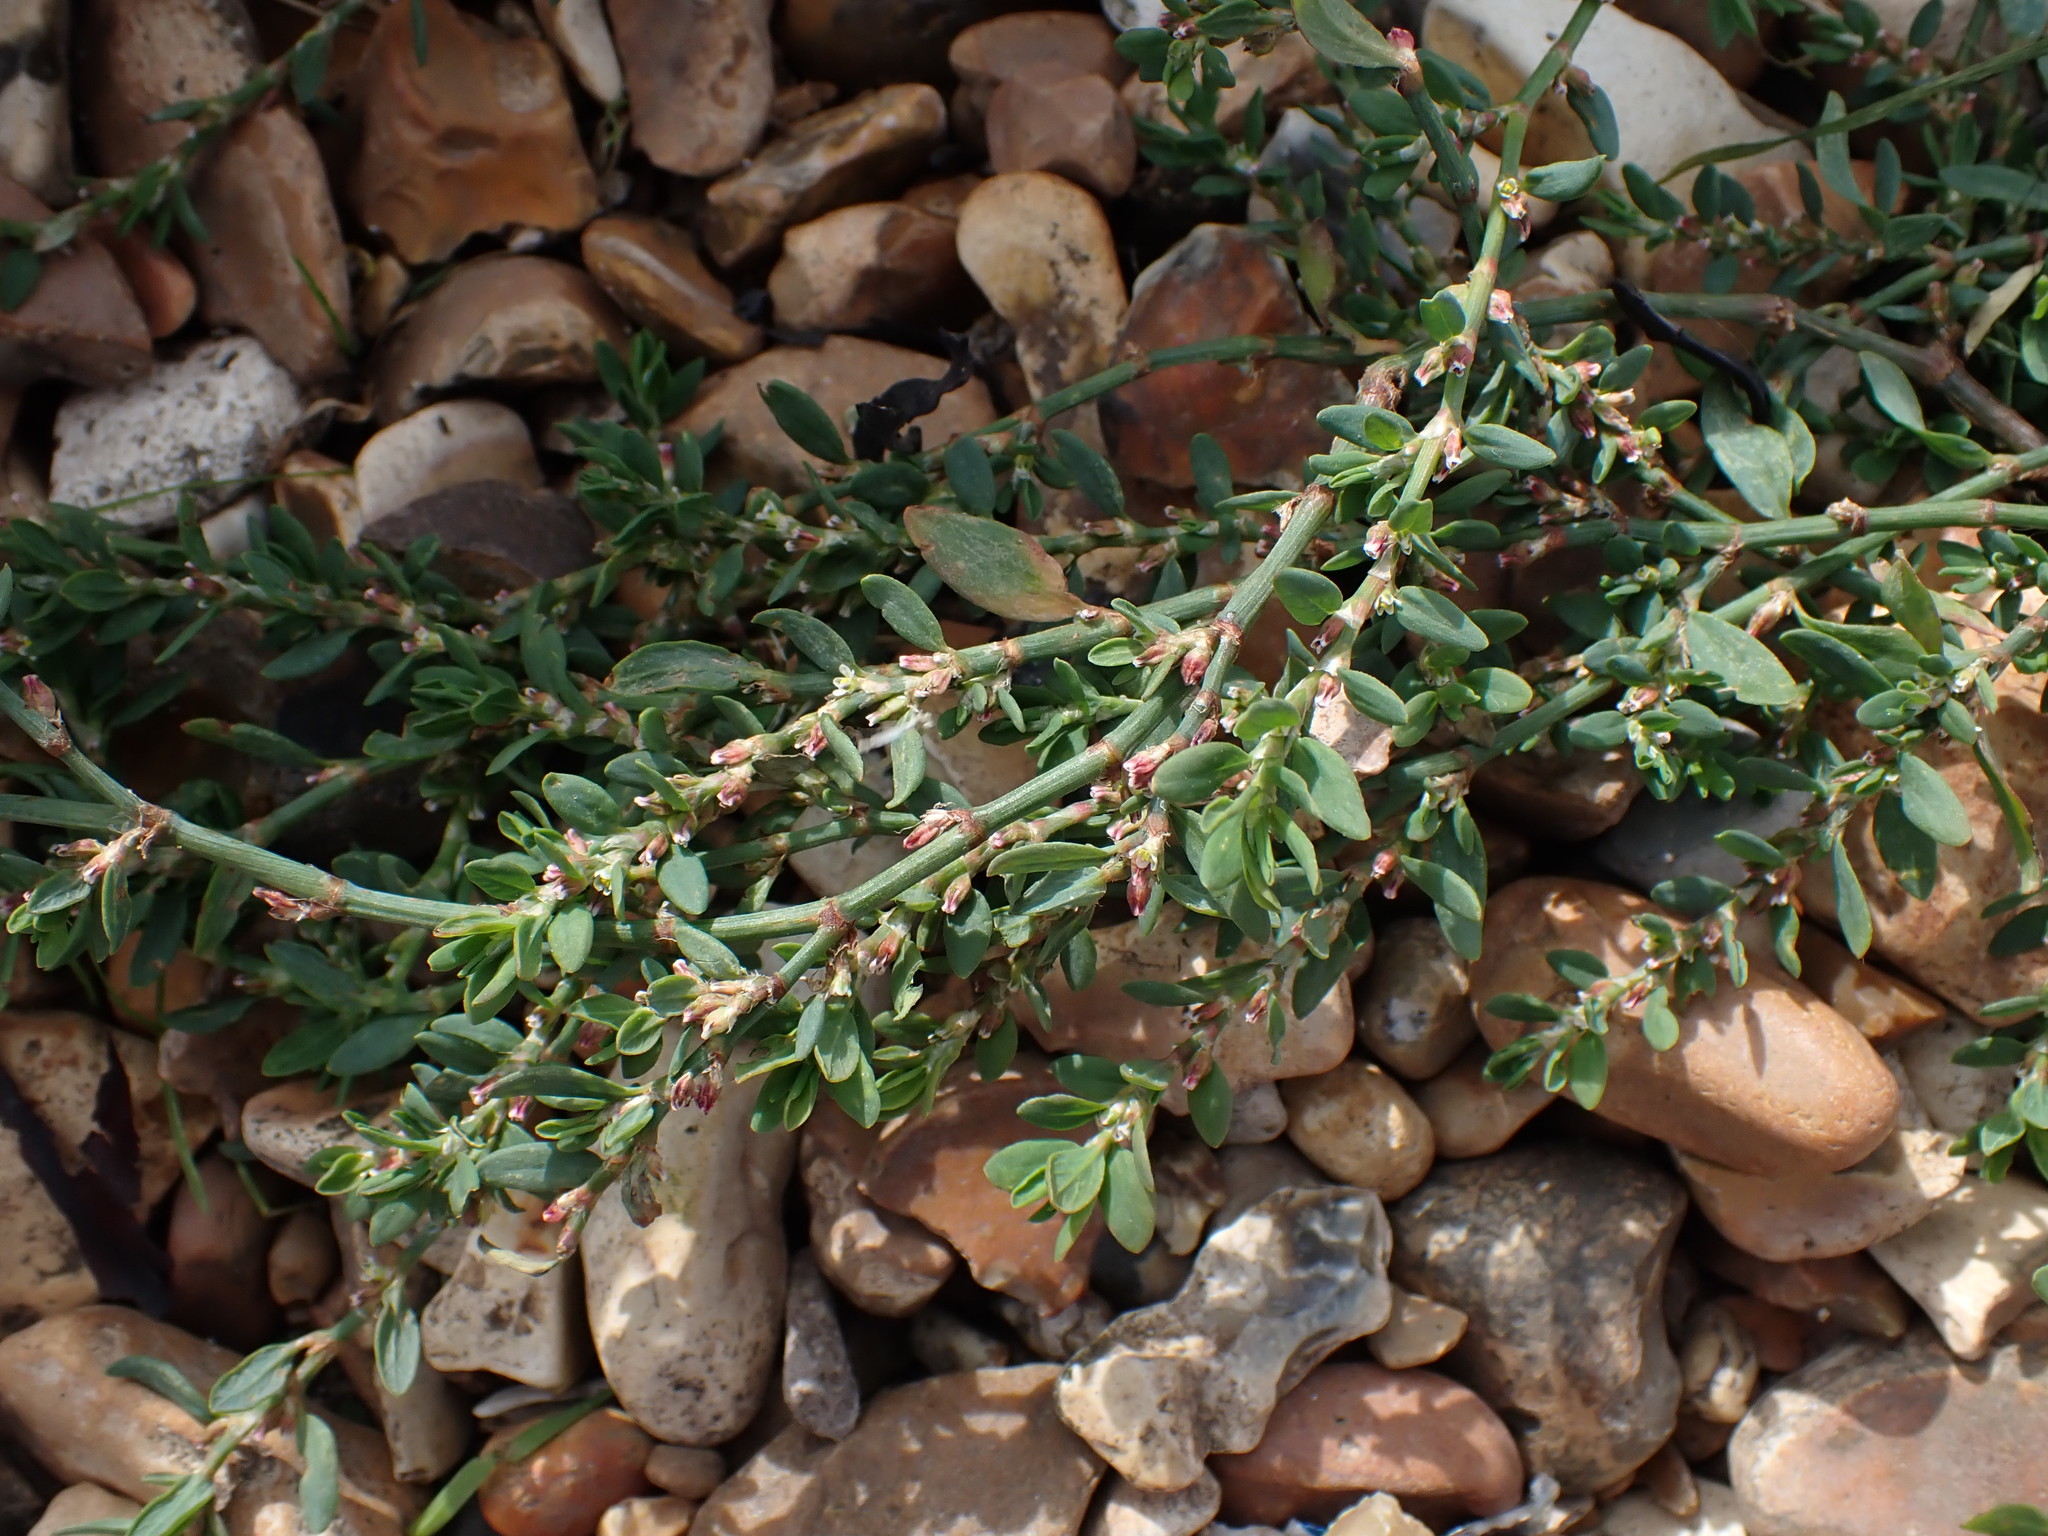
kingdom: Plantae
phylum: Tracheophyta
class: Magnoliopsida
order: Caryophyllales
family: Polygonaceae
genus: Polygonum
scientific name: Polygonum aviculare
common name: Prostrate knotweed
